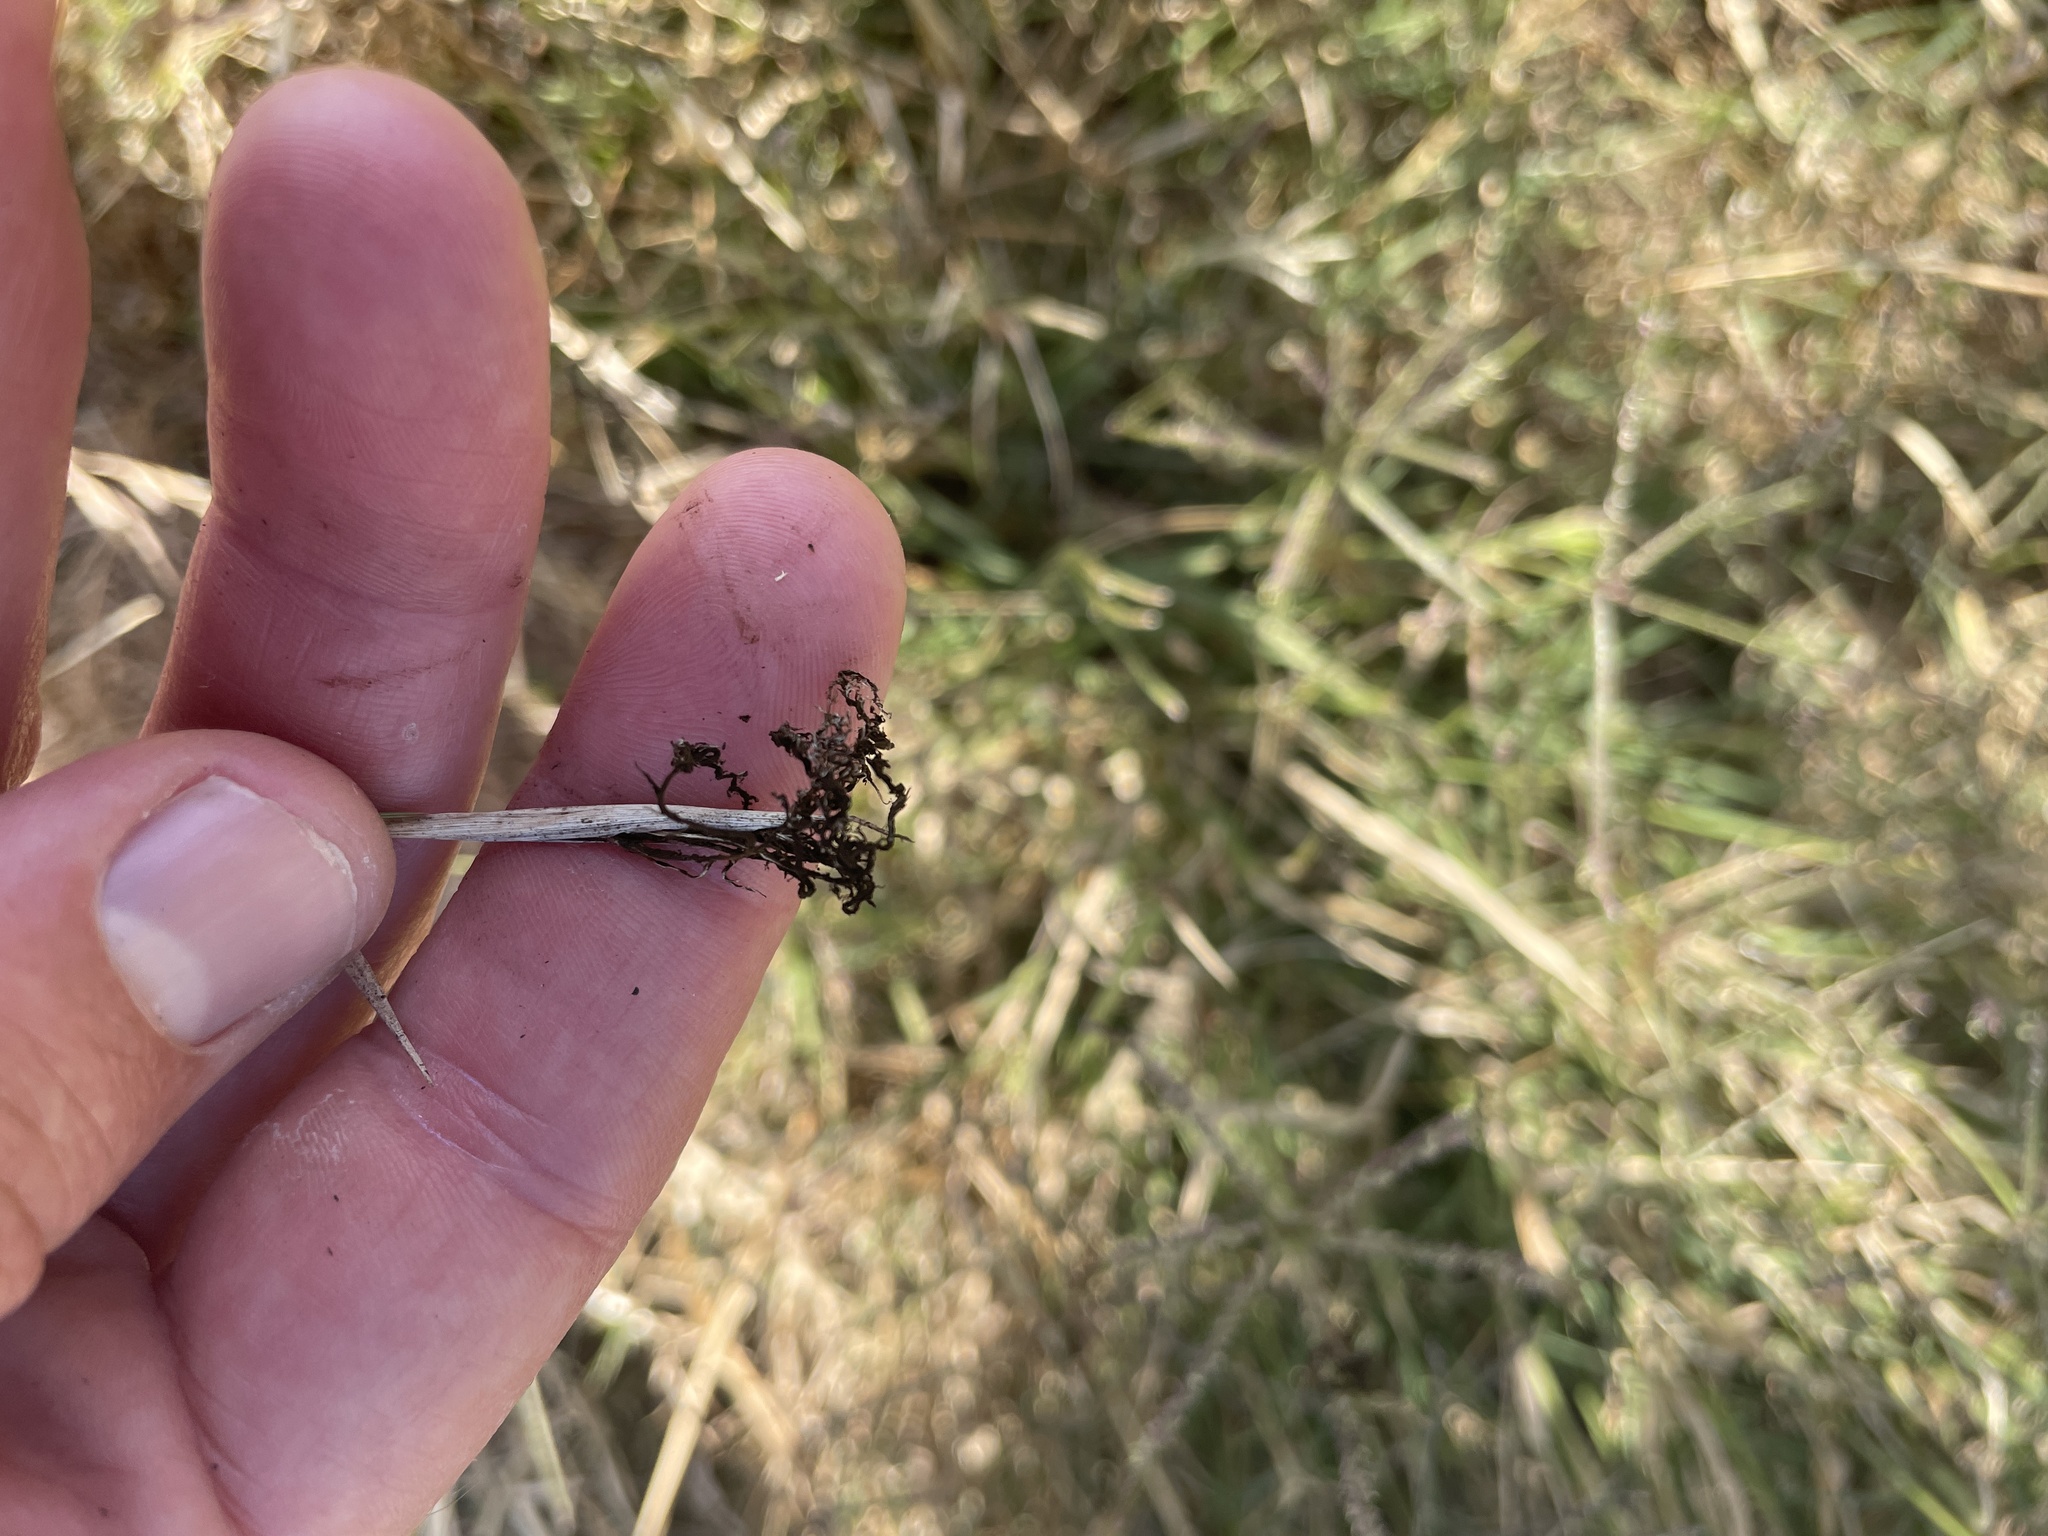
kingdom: Fungi
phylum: Basidiomycota
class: Ustilaginomycetes
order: Ustilaginales
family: Ustilaginaceae
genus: Ustilago
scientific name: Ustilago cynodontis
